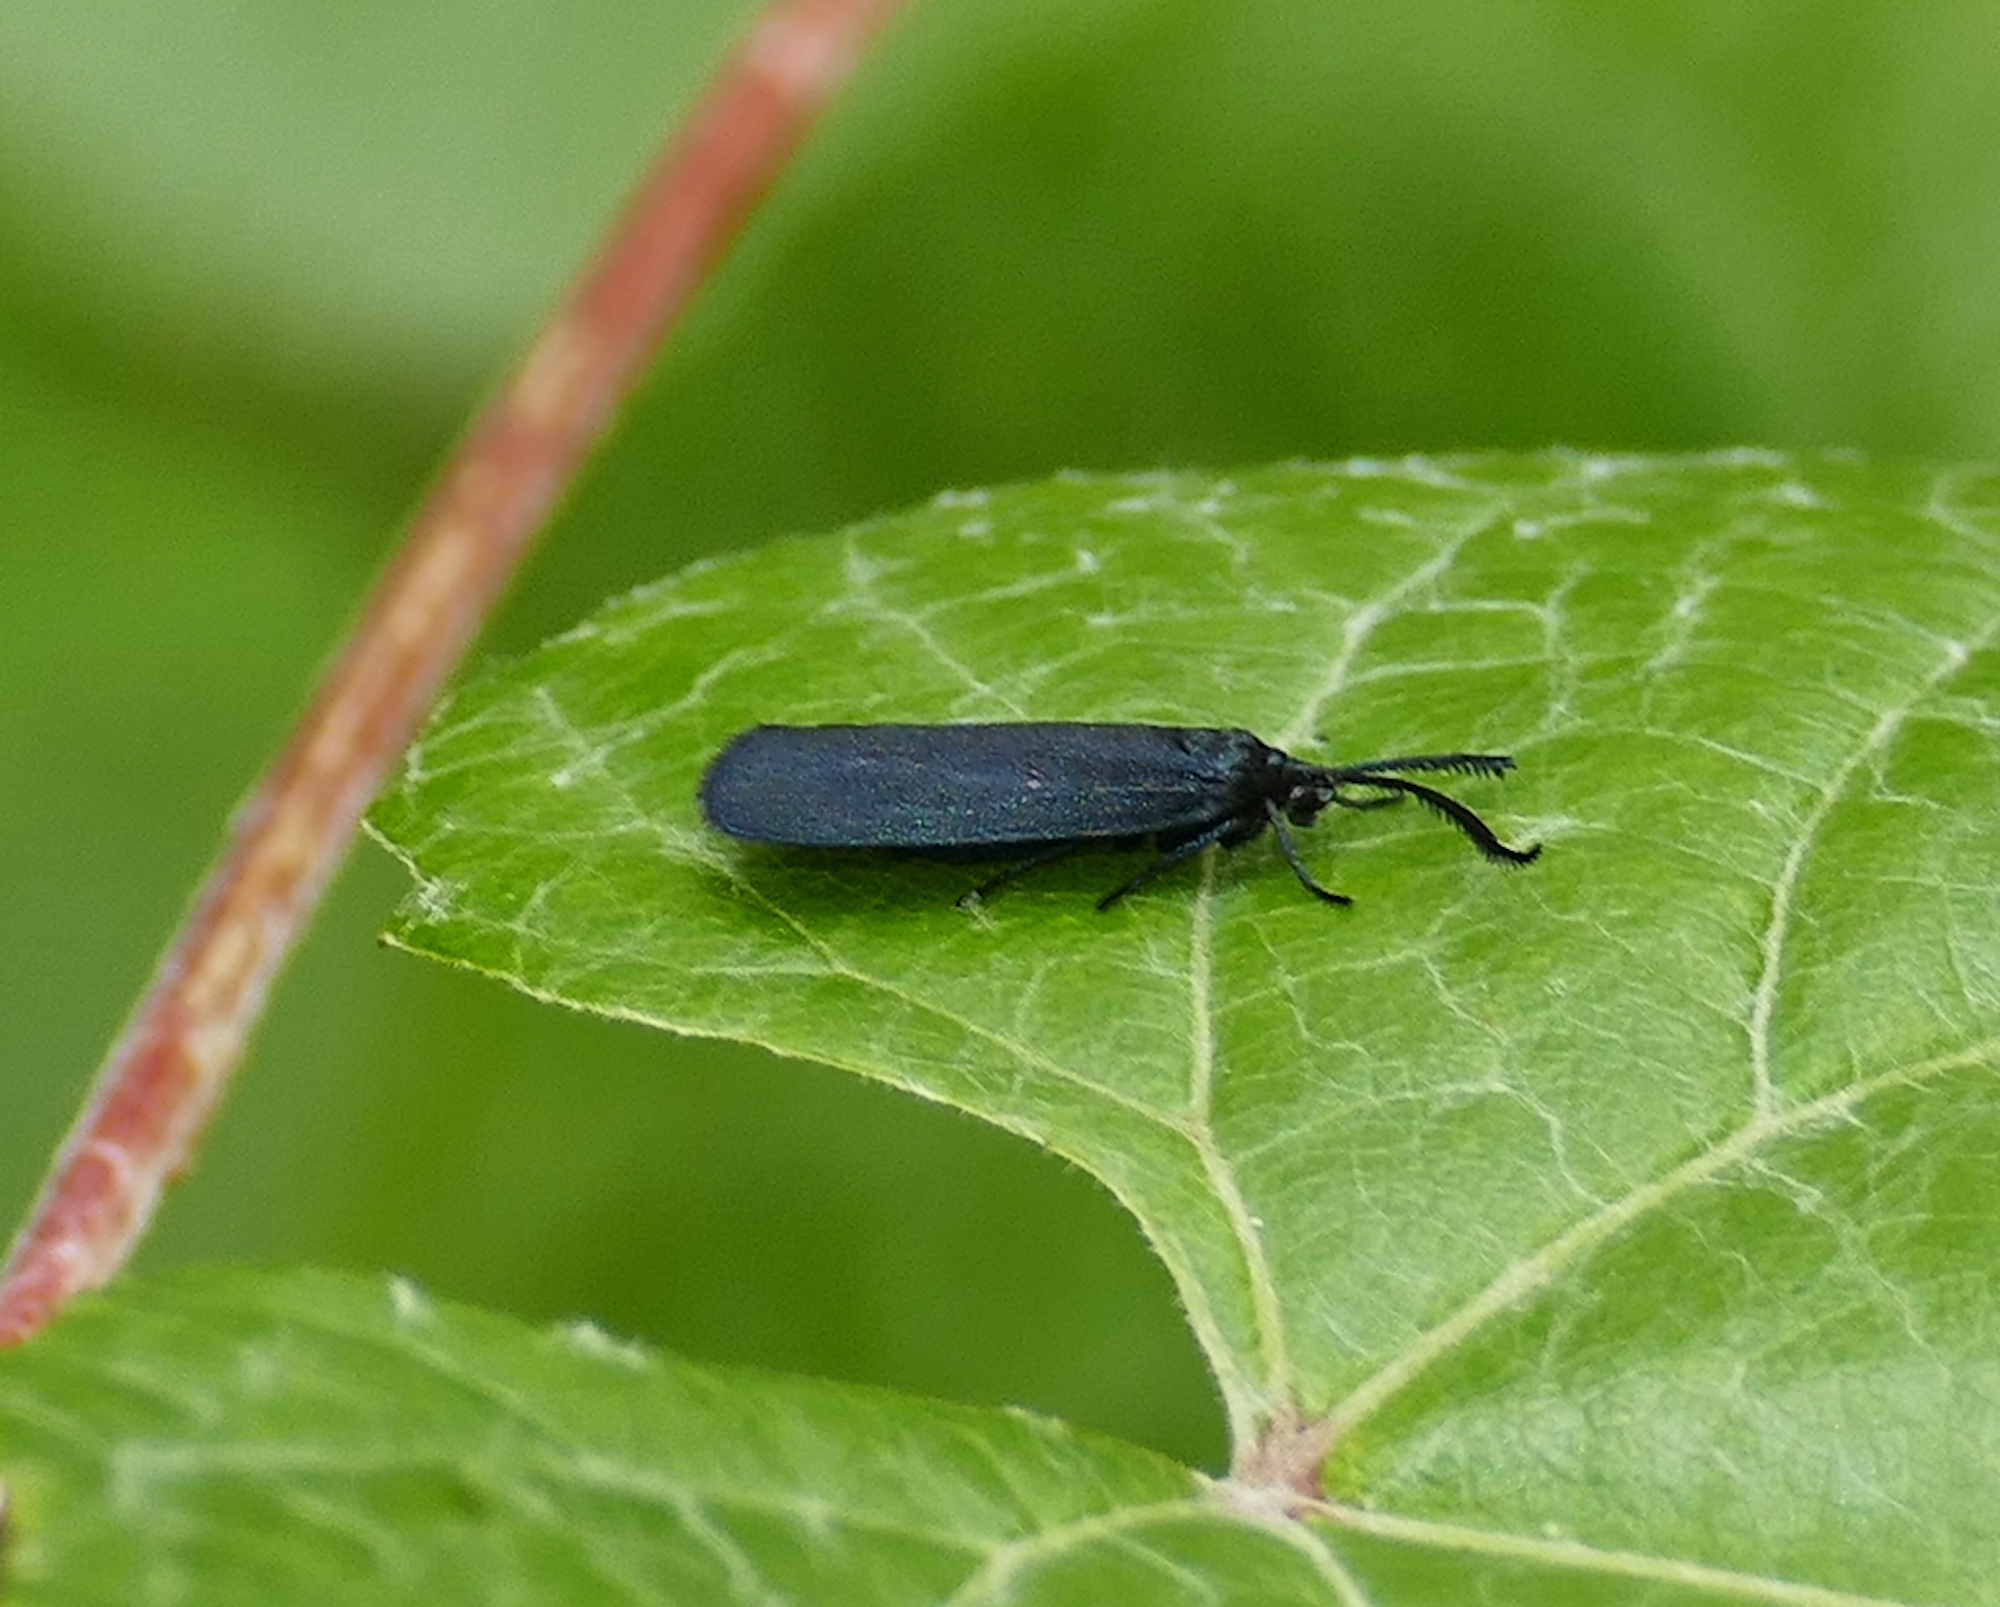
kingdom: Animalia
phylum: Arthropoda
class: Insecta
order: Lepidoptera
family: Zygaenidae
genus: Harrisina
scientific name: Harrisina metallica
